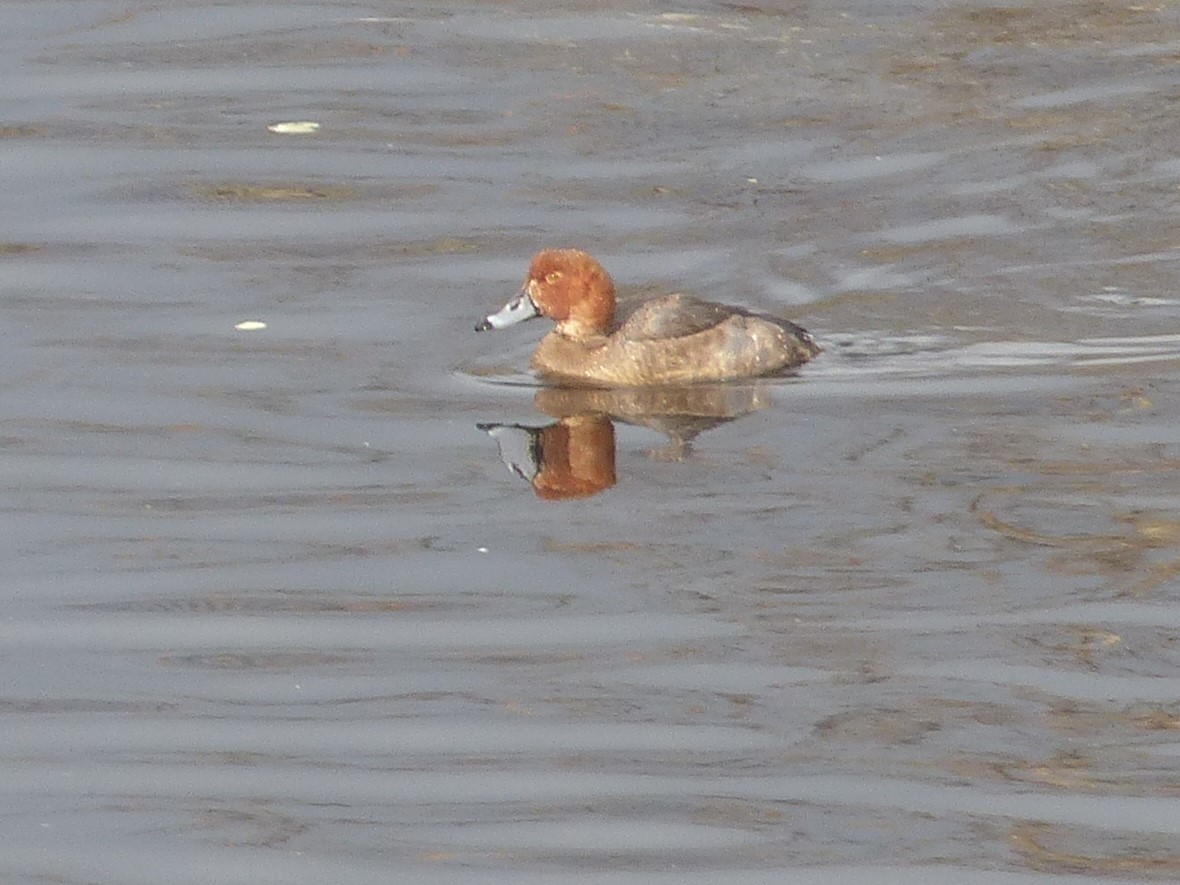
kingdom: Animalia
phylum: Chordata
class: Aves
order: Anseriformes
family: Anatidae
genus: Aythya
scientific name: Aythya americana
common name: Redhead
